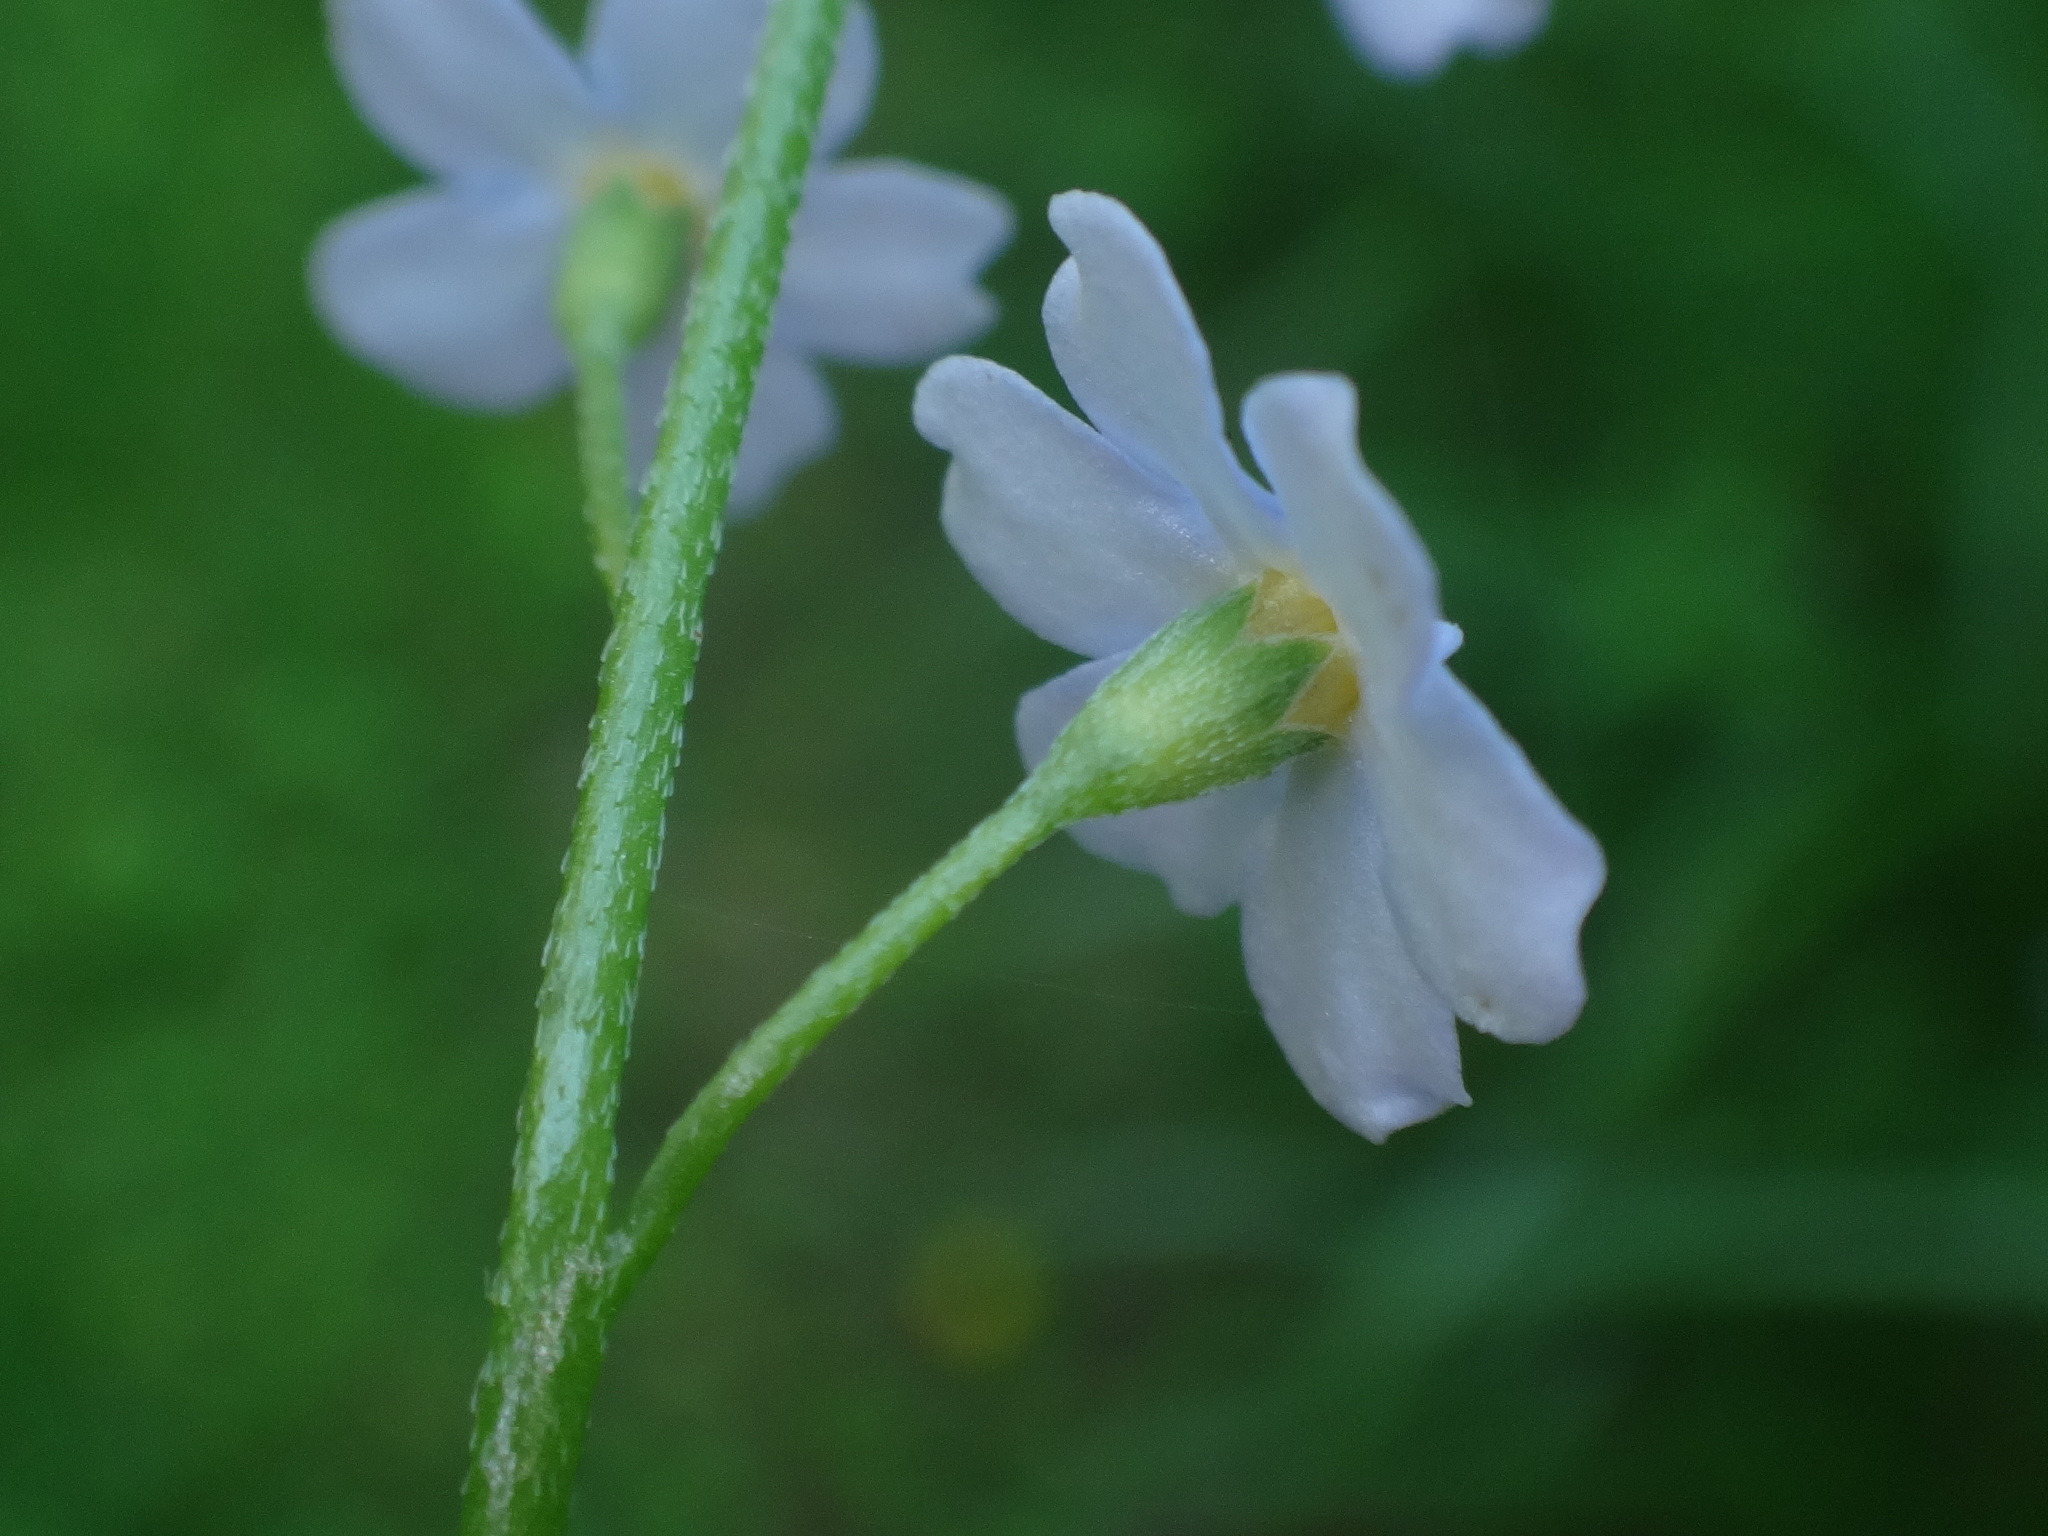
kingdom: Plantae
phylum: Tracheophyta
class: Magnoliopsida
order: Boraginales
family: Boraginaceae
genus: Myosotis
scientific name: Myosotis scorpioides
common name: Water forget-me-not
